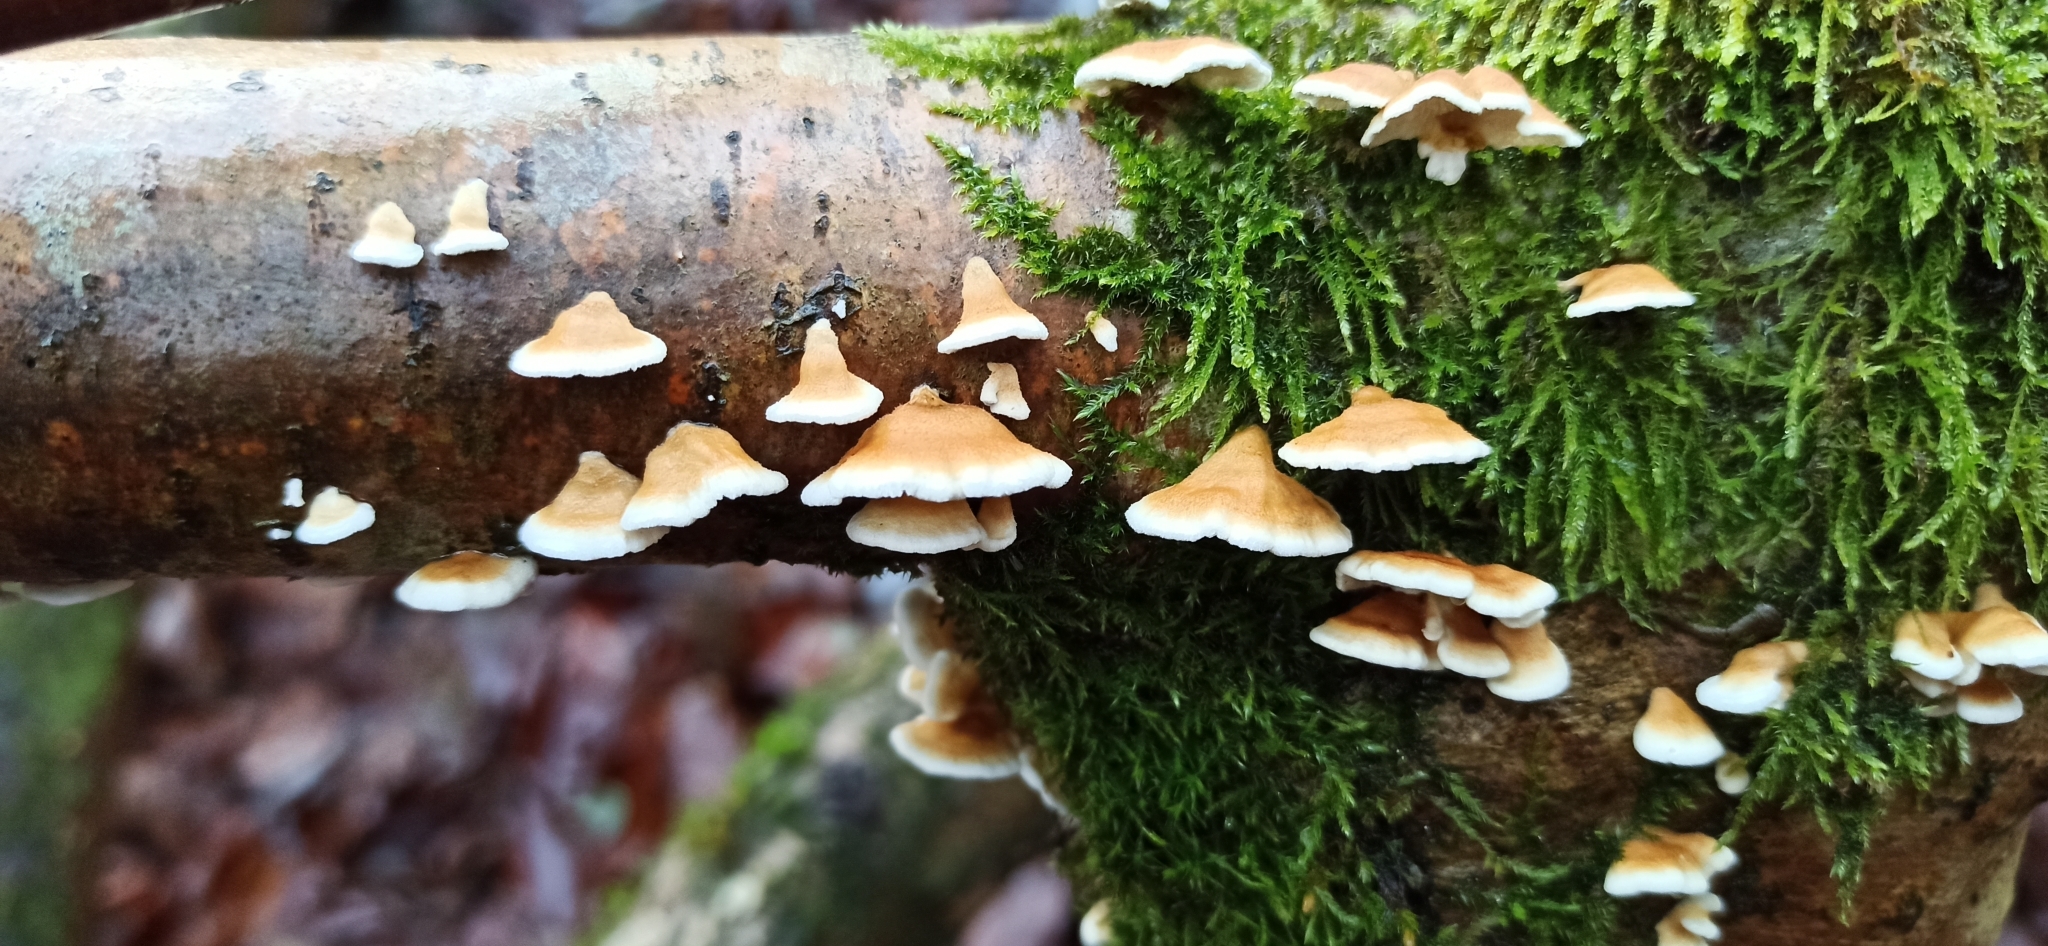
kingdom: Fungi
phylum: Basidiomycota
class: Agaricomycetes
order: Amylocorticiales
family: Amylocorticiaceae
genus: Plicaturopsis
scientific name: Plicaturopsis crispa
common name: Crimped gill
